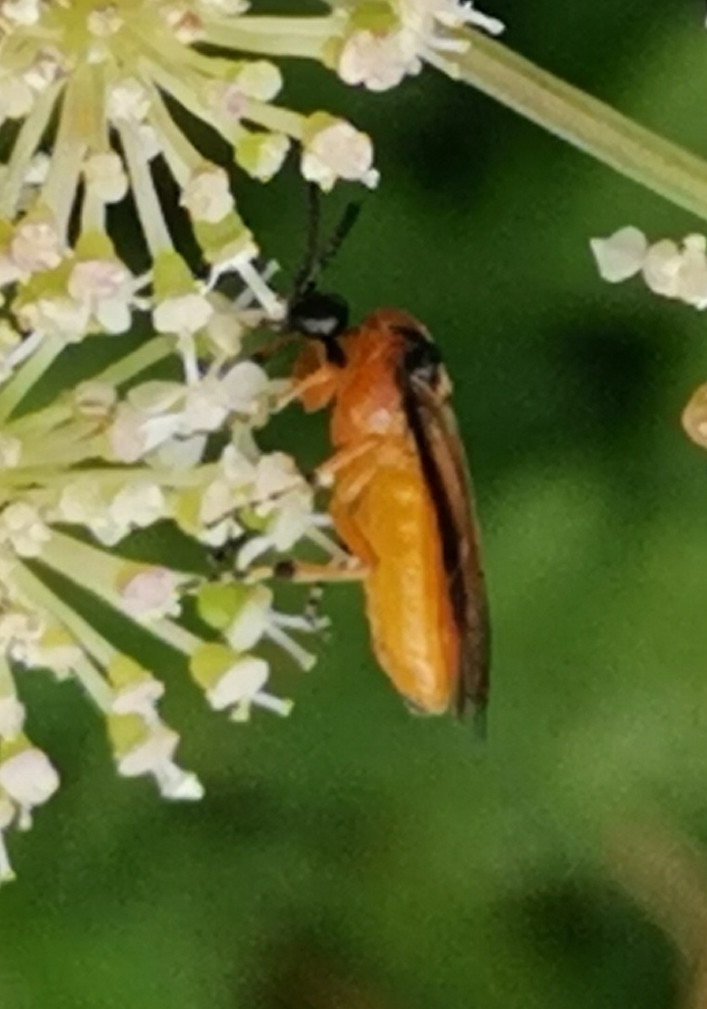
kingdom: Animalia
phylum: Arthropoda
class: Insecta
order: Hymenoptera
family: Tenthredinidae
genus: Athalia
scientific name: Athalia rosae
